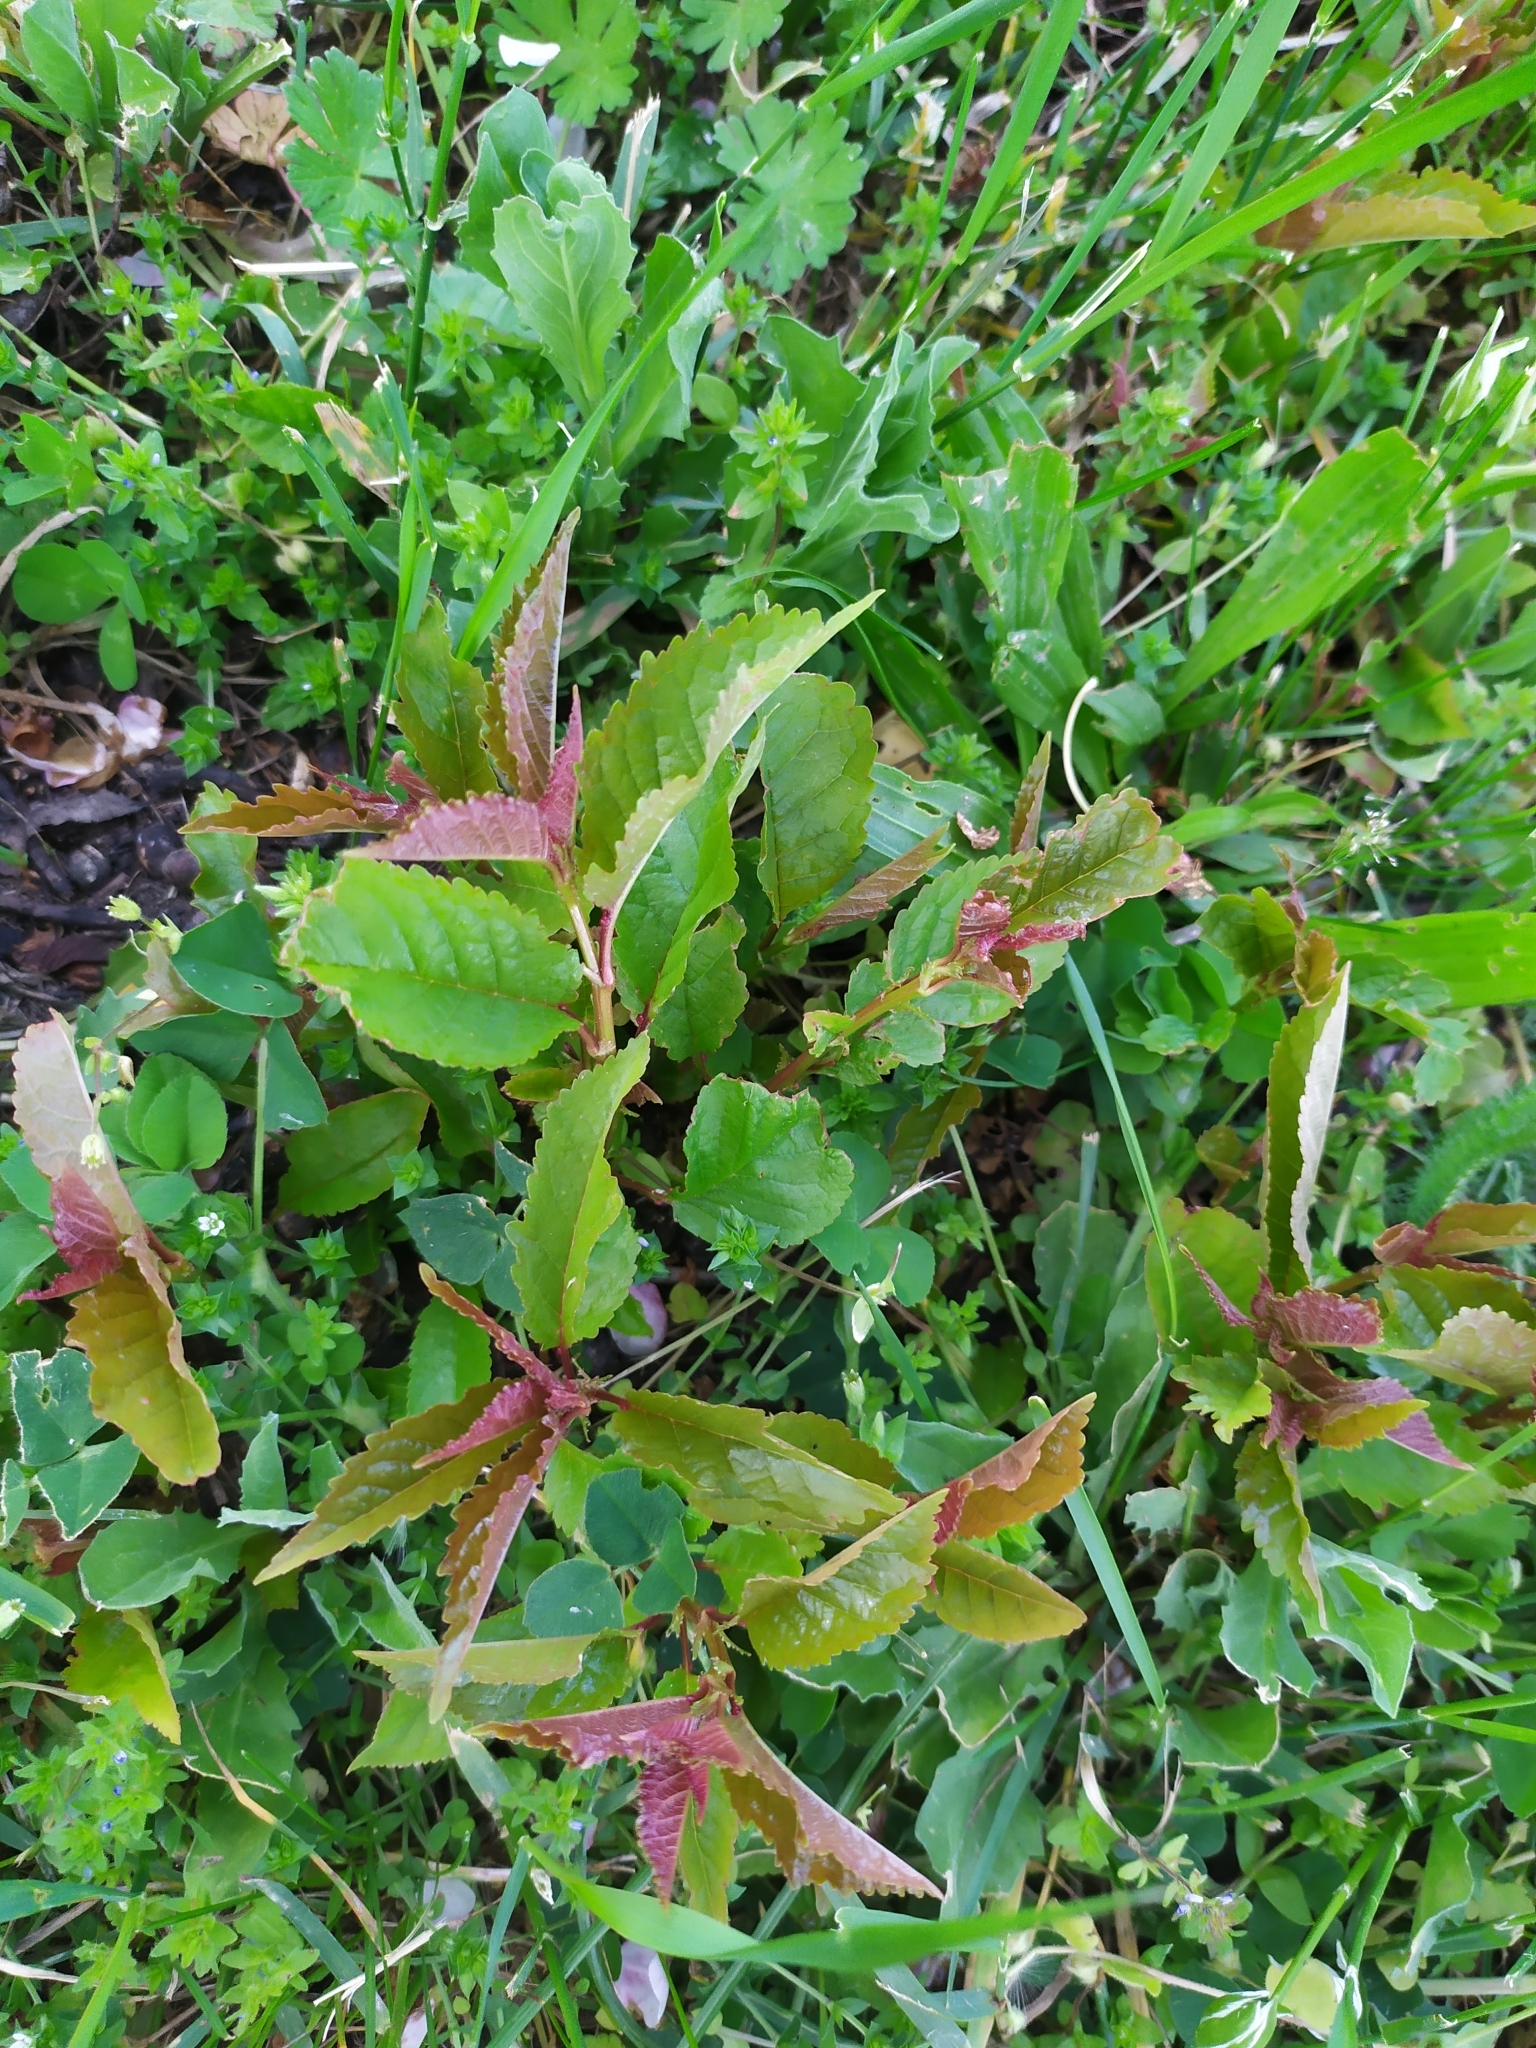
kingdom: Plantae
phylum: Tracheophyta
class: Magnoliopsida
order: Rosales
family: Rosaceae
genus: Prunus
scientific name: Prunus avium
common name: Sweet cherry
